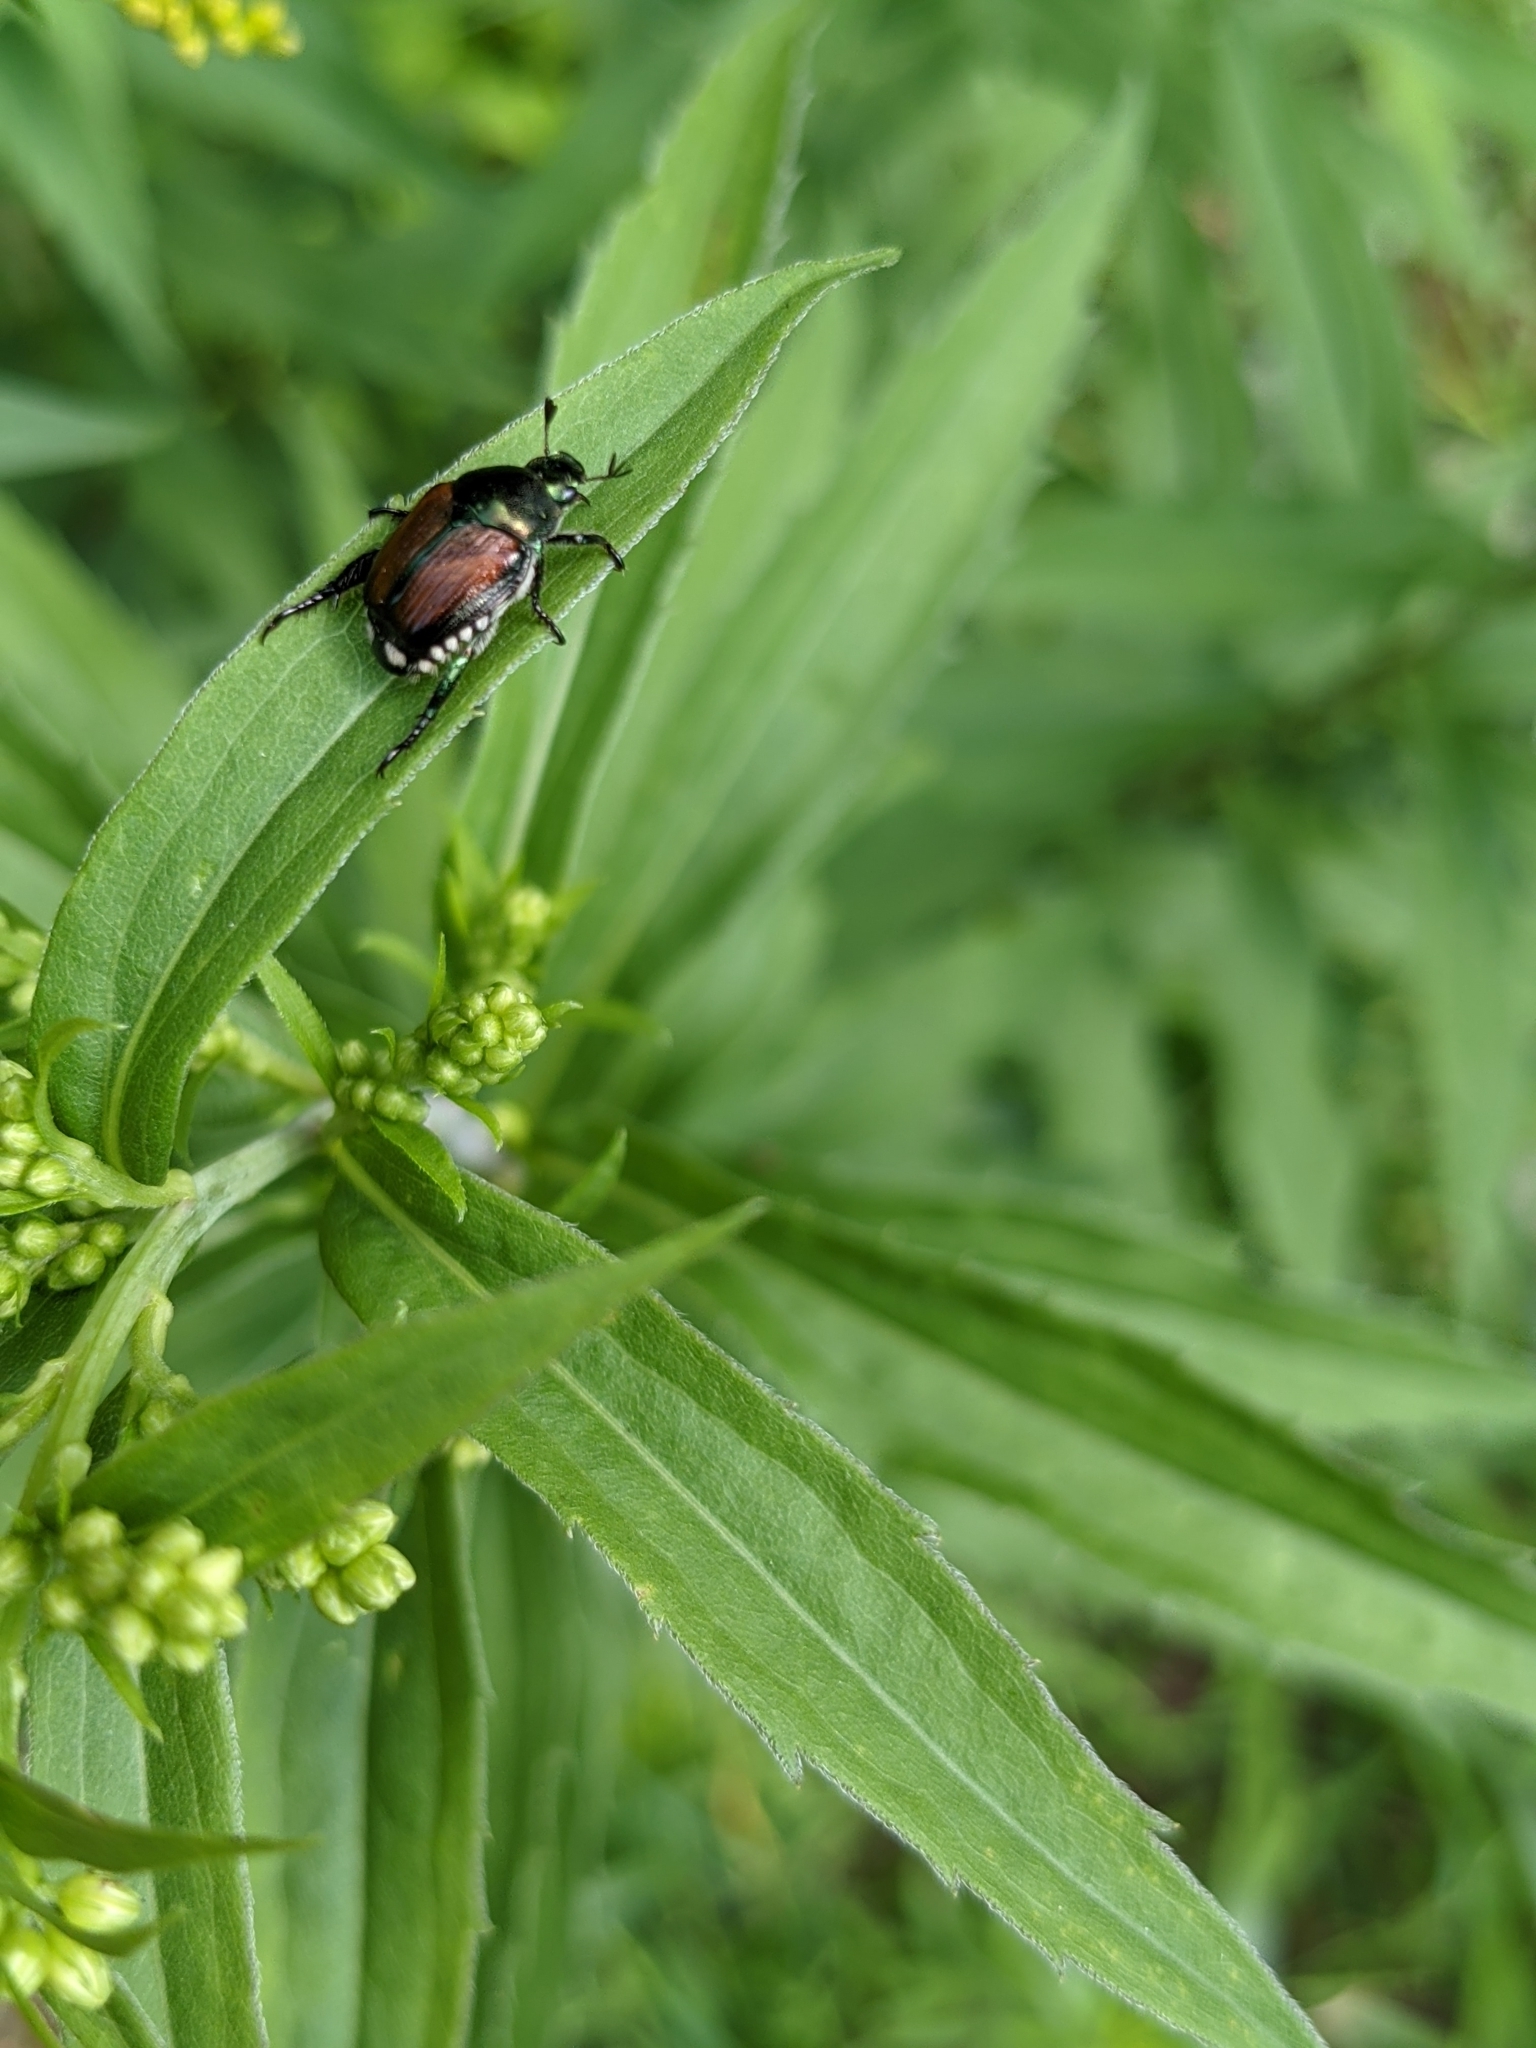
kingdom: Animalia
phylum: Arthropoda
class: Insecta
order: Coleoptera
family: Scarabaeidae
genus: Popillia
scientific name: Popillia japonica
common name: Japanese beetle
